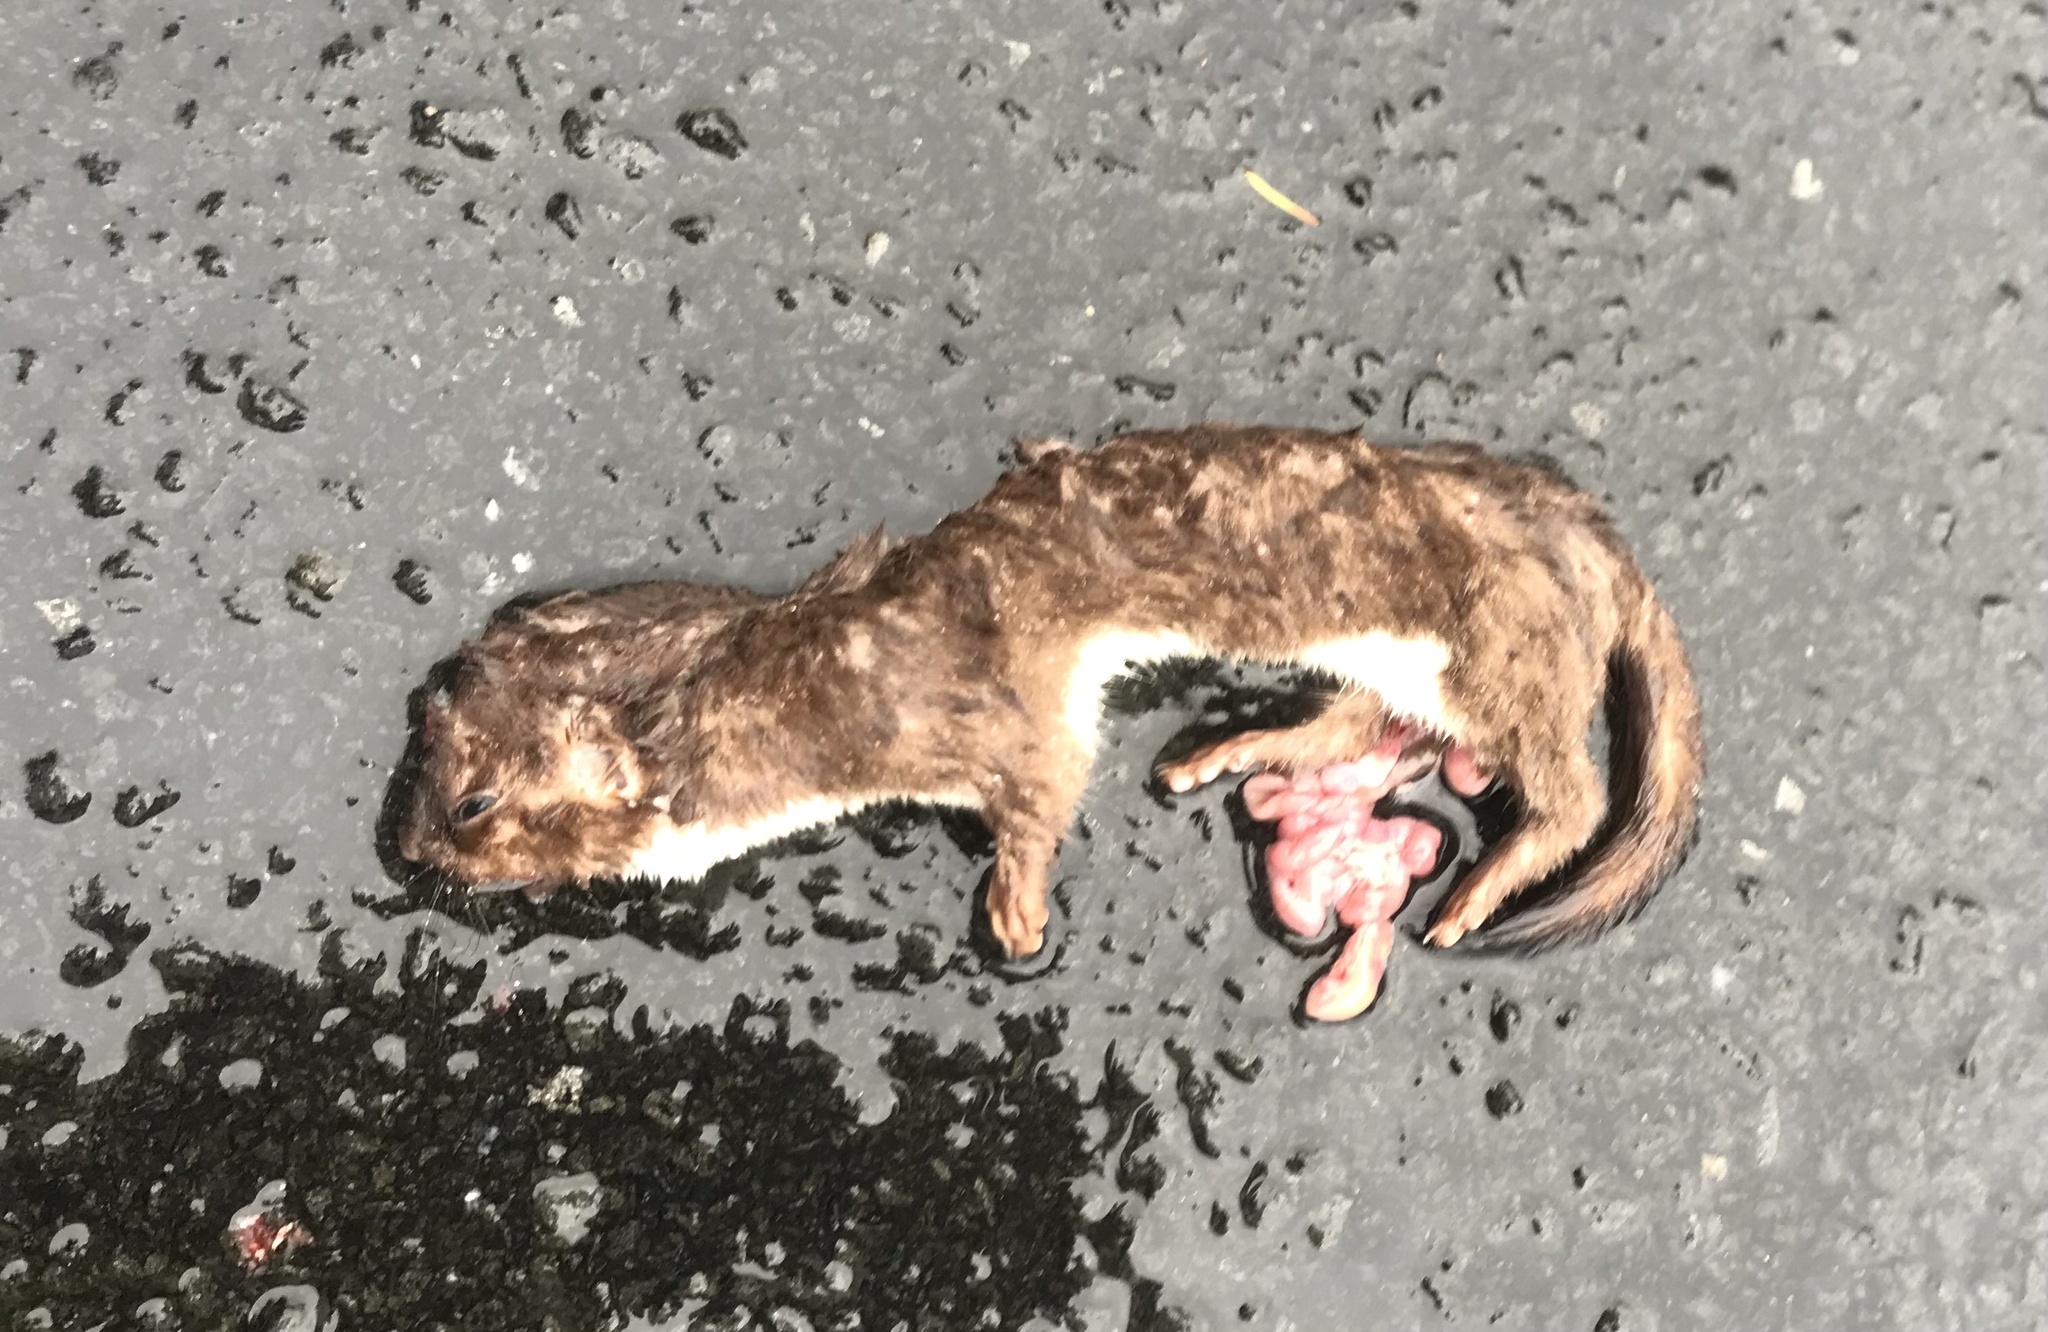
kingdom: Animalia
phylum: Chordata
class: Mammalia
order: Carnivora
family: Mustelidae
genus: Mustela
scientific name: Mustela erminea
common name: Stoat
